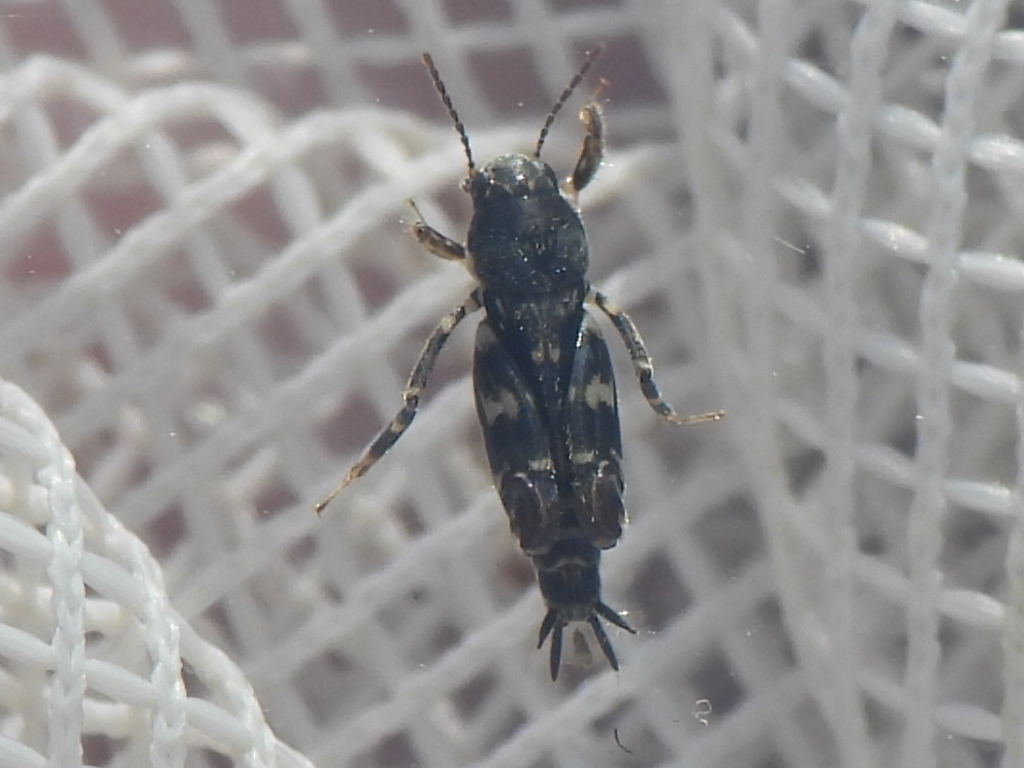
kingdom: Animalia
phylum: Arthropoda
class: Insecta
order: Orthoptera
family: Tridactylidae
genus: Ellipes
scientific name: Ellipes minuta
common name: Minute pygmy locust
